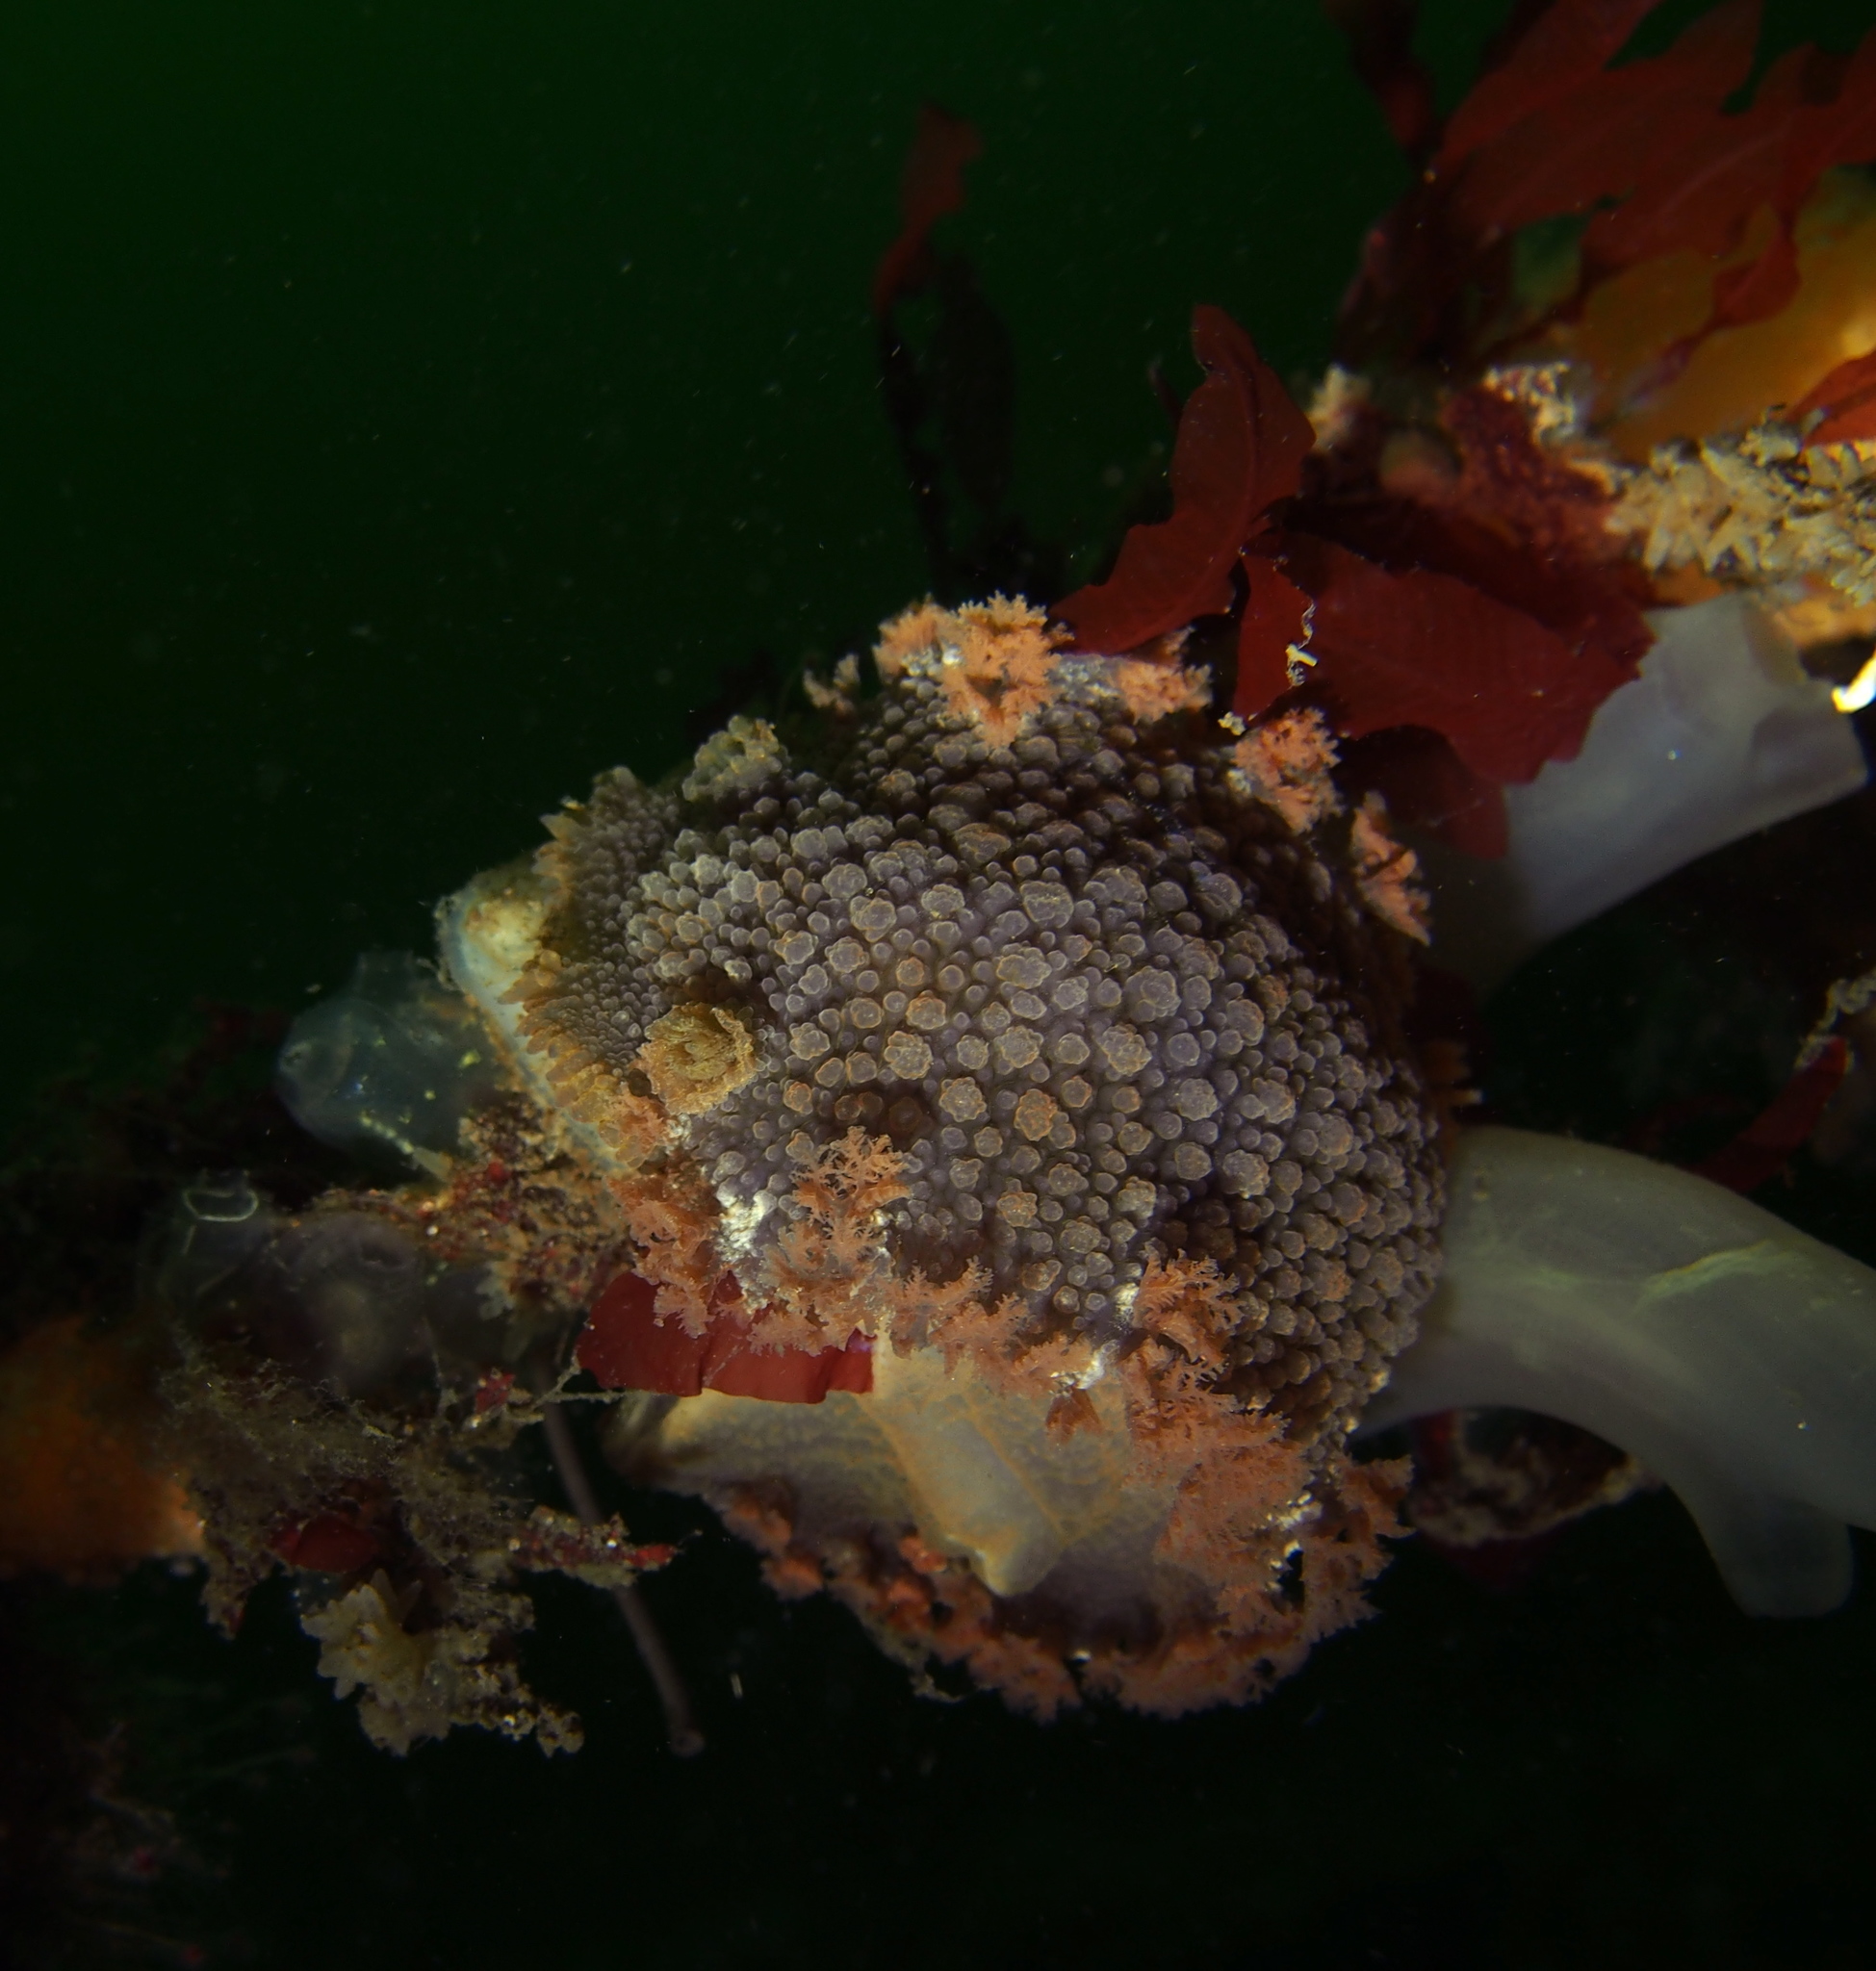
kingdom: Animalia
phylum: Mollusca
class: Gastropoda
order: Nudibranchia
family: Tritoniidae
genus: Tritonia
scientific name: Tritonia hombergii
